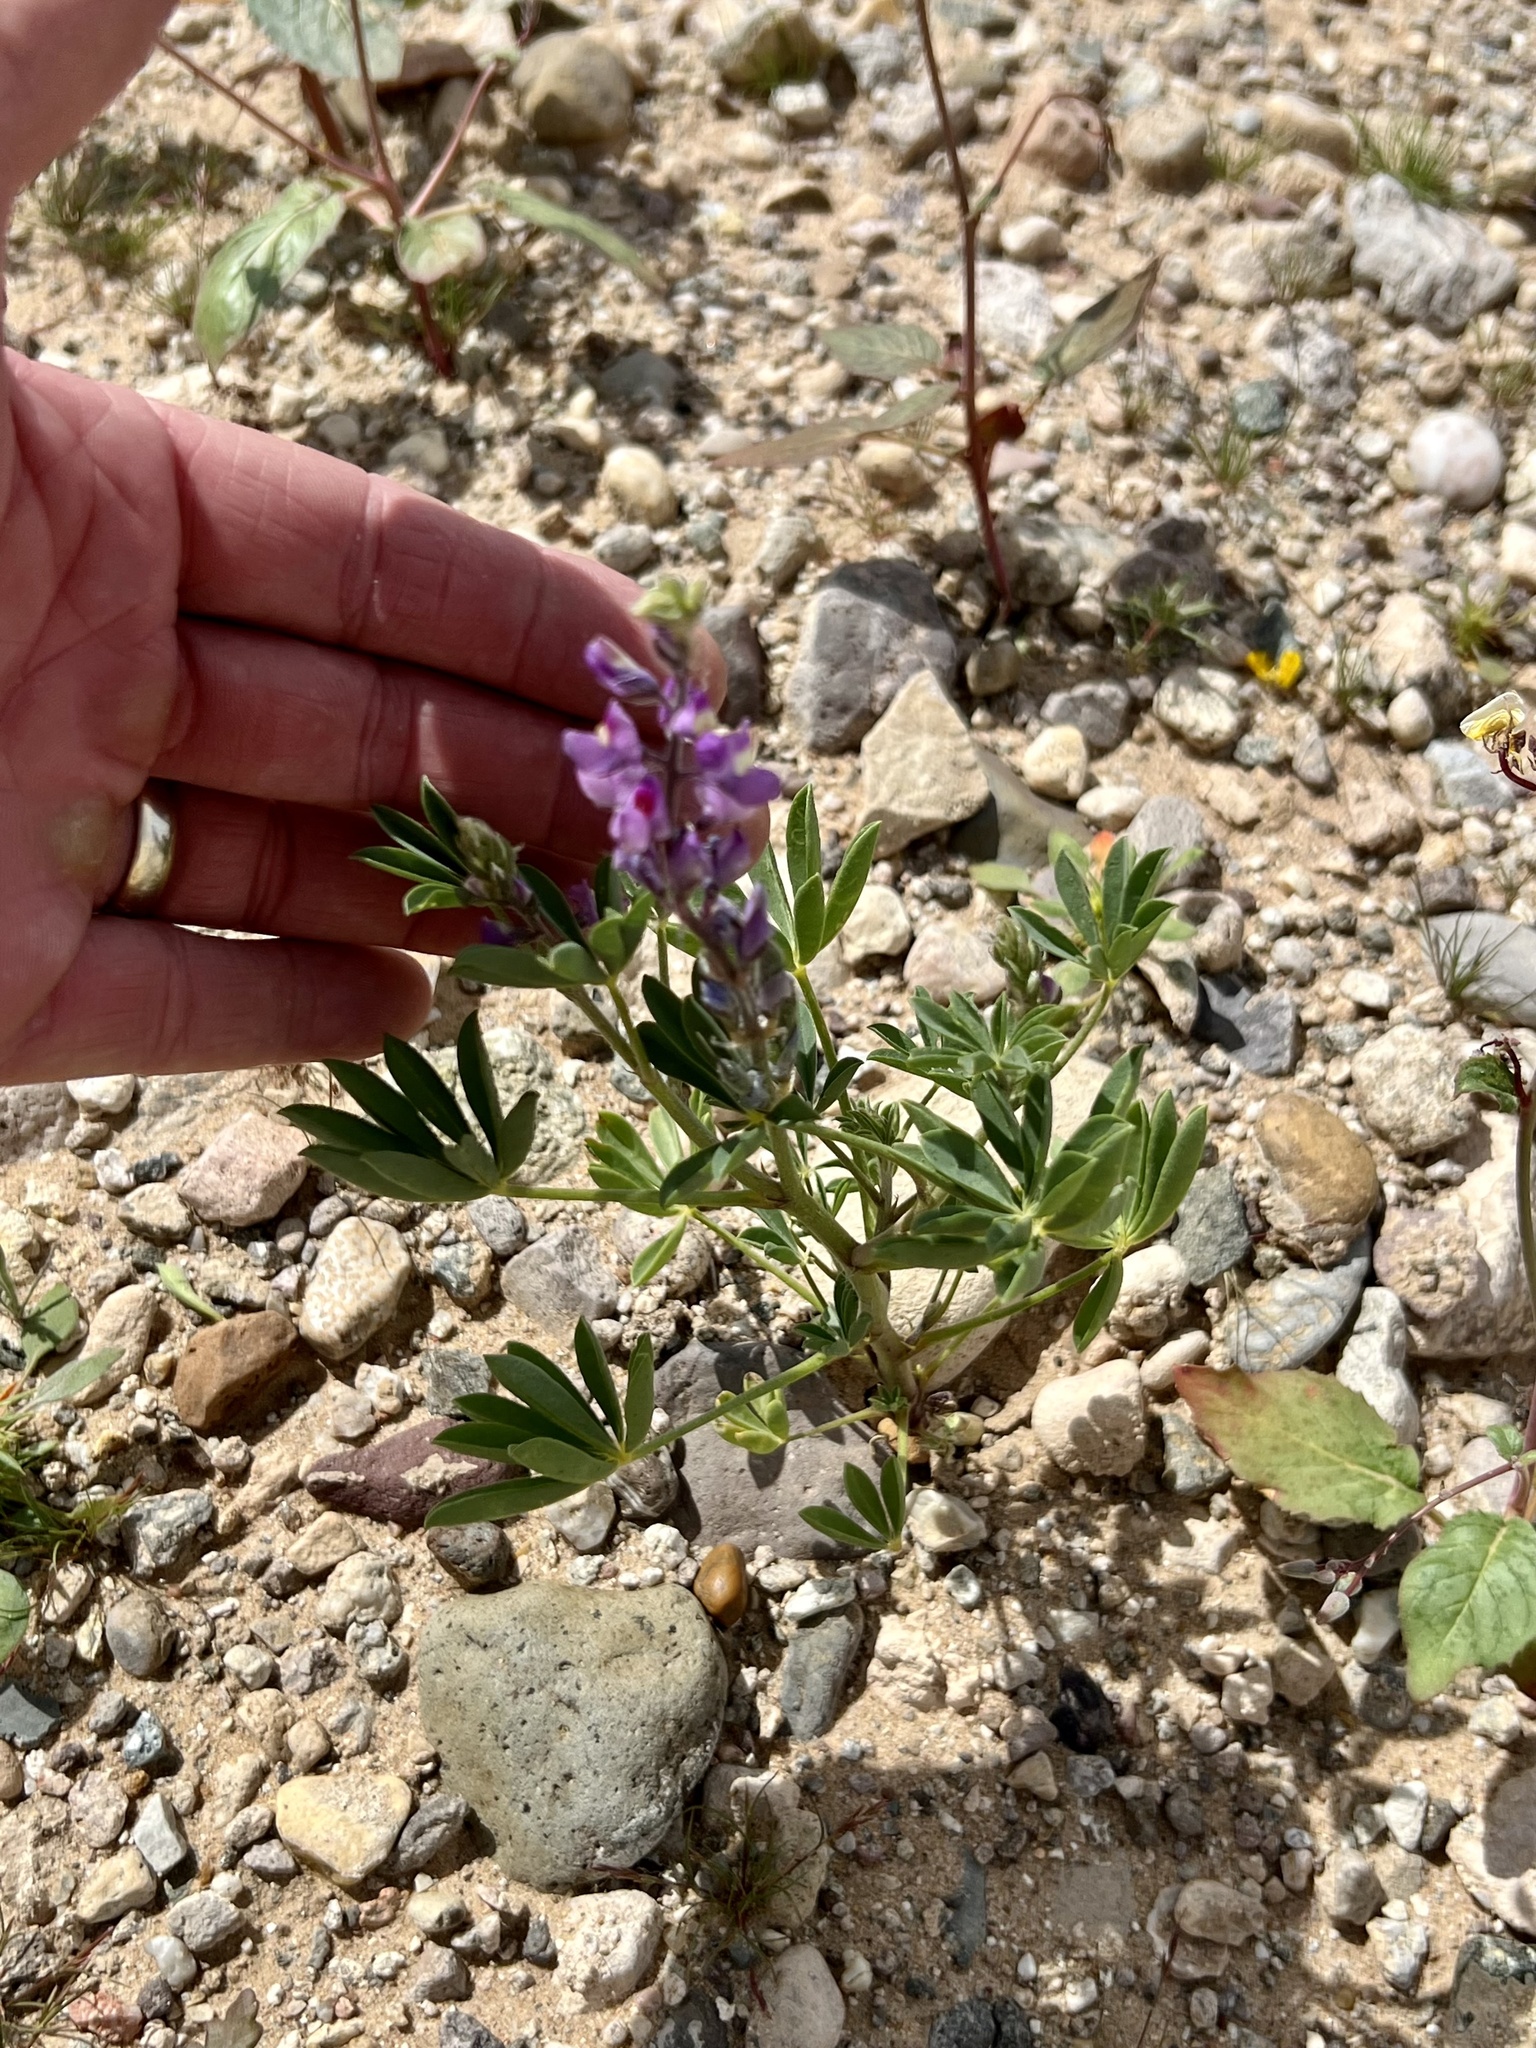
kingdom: Plantae
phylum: Tracheophyta
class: Magnoliopsida
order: Fabales
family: Fabaceae
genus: Lupinus
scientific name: Lupinus arizonicus
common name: Arizona lupine
